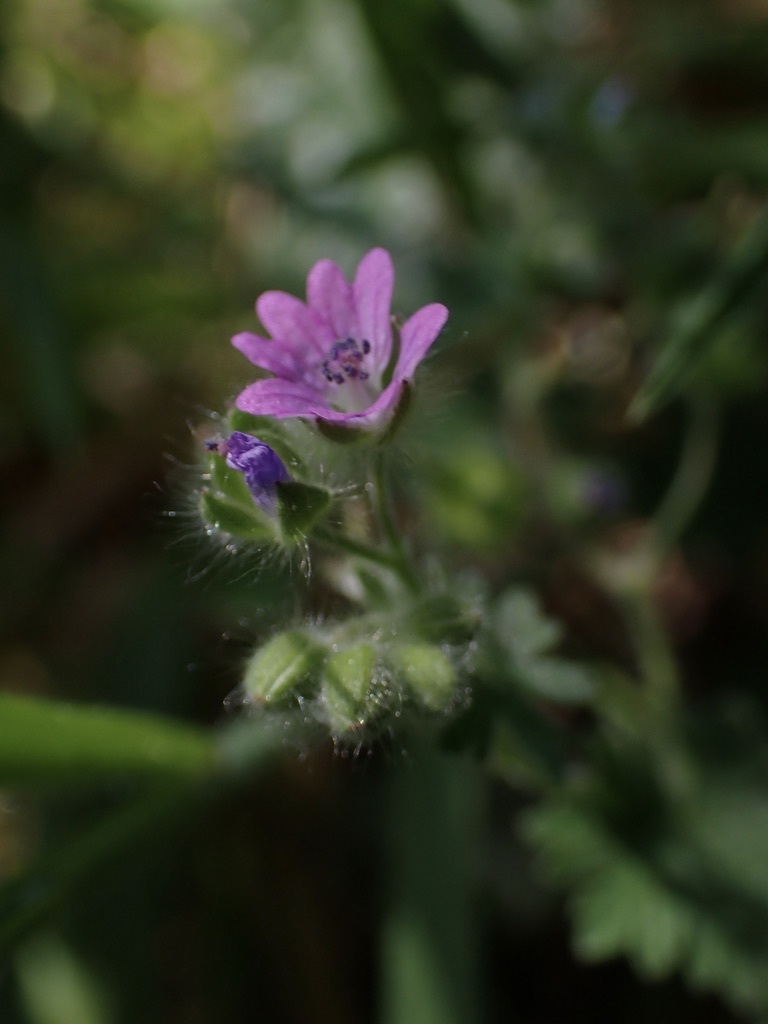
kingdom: Plantae
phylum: Tracheophyta
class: Magnoliopsida
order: Geraniales
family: Geraniaceae
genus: Geranium
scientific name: Geranium molle
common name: Dove's-foot crane's-bill
